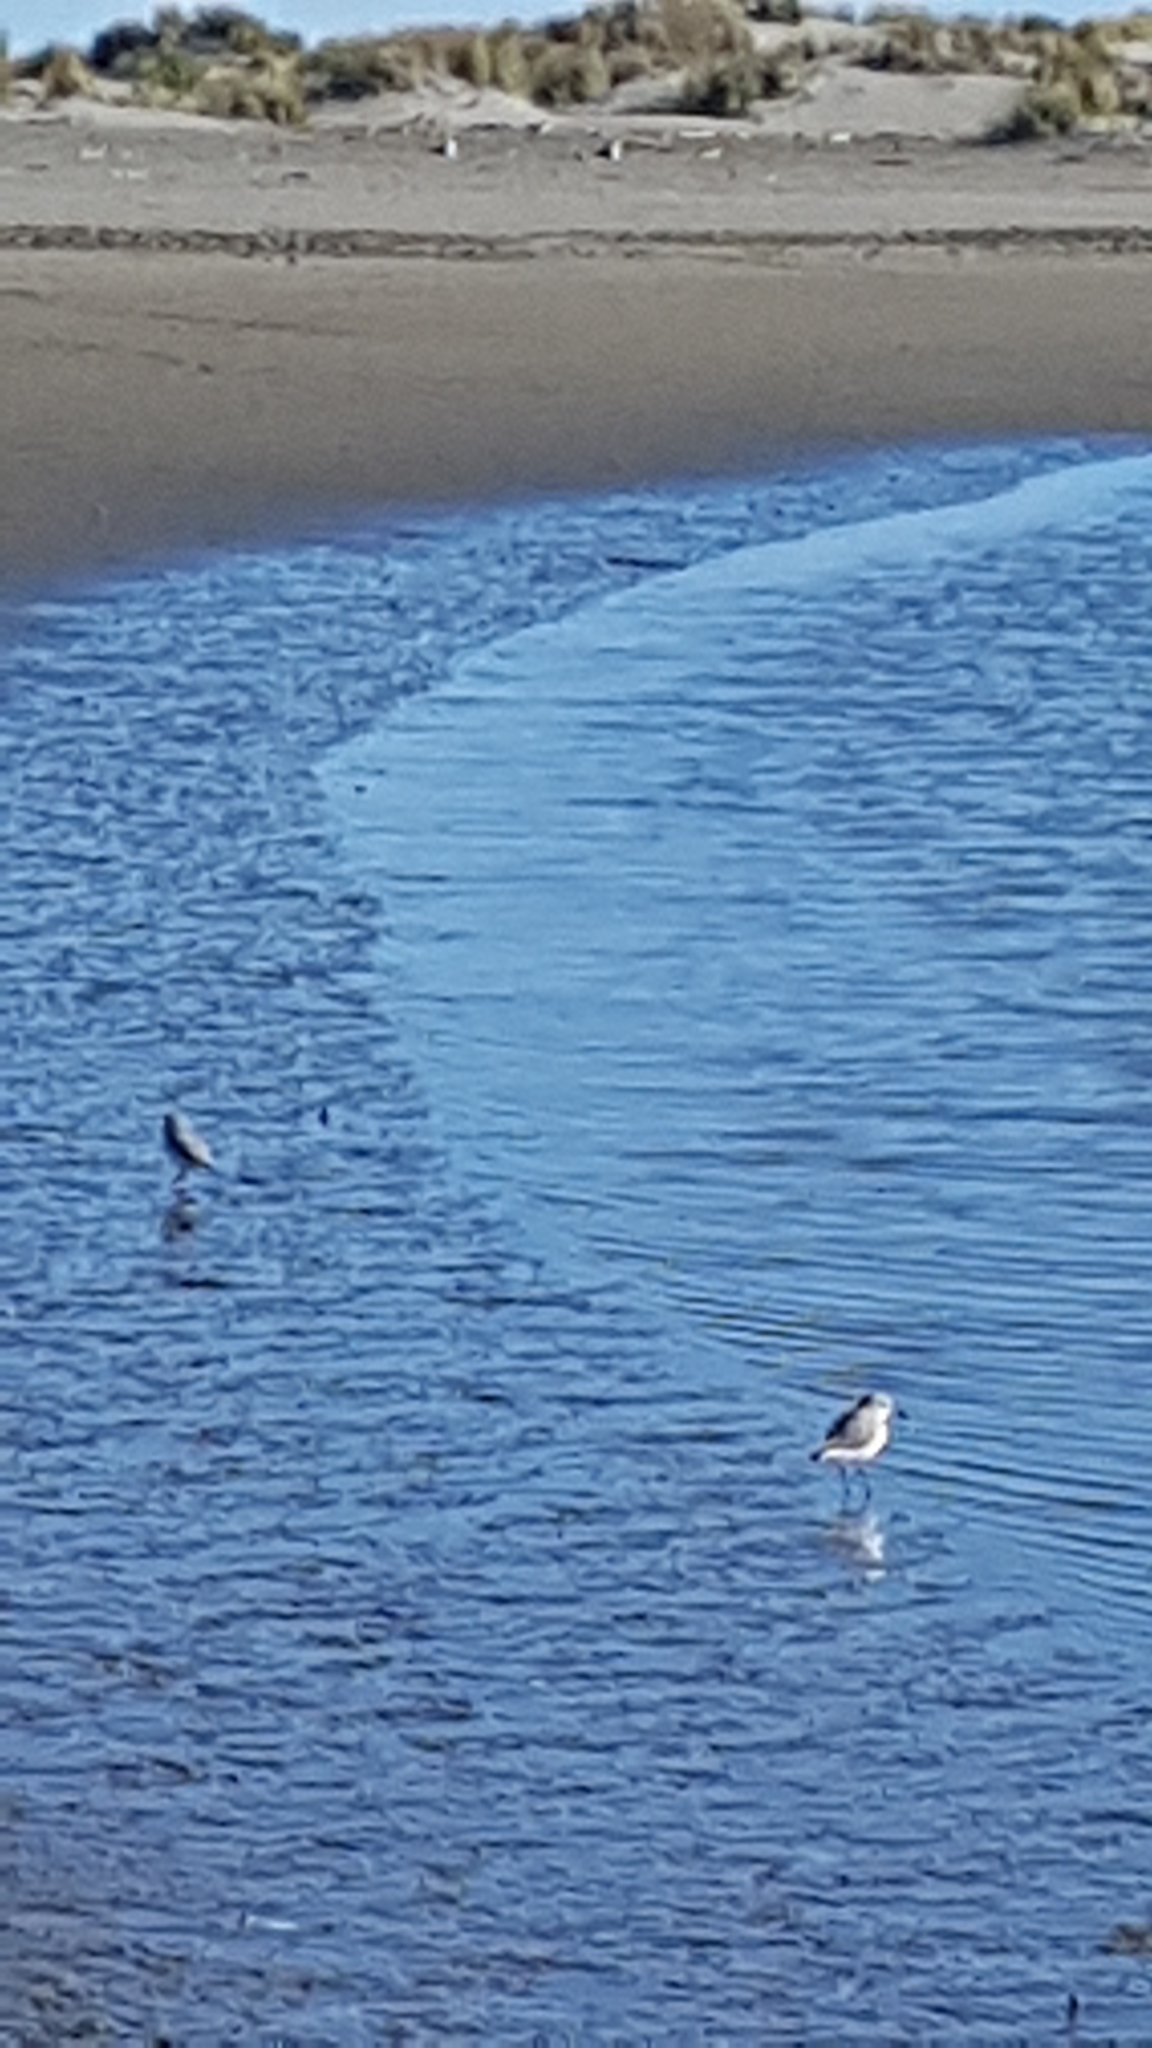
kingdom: Animalia
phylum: Chordata
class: Aves
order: Charadriiformes
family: Charadriidae
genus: Anarhynchus
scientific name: Anarhynchus frontalis
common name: Wrybill
